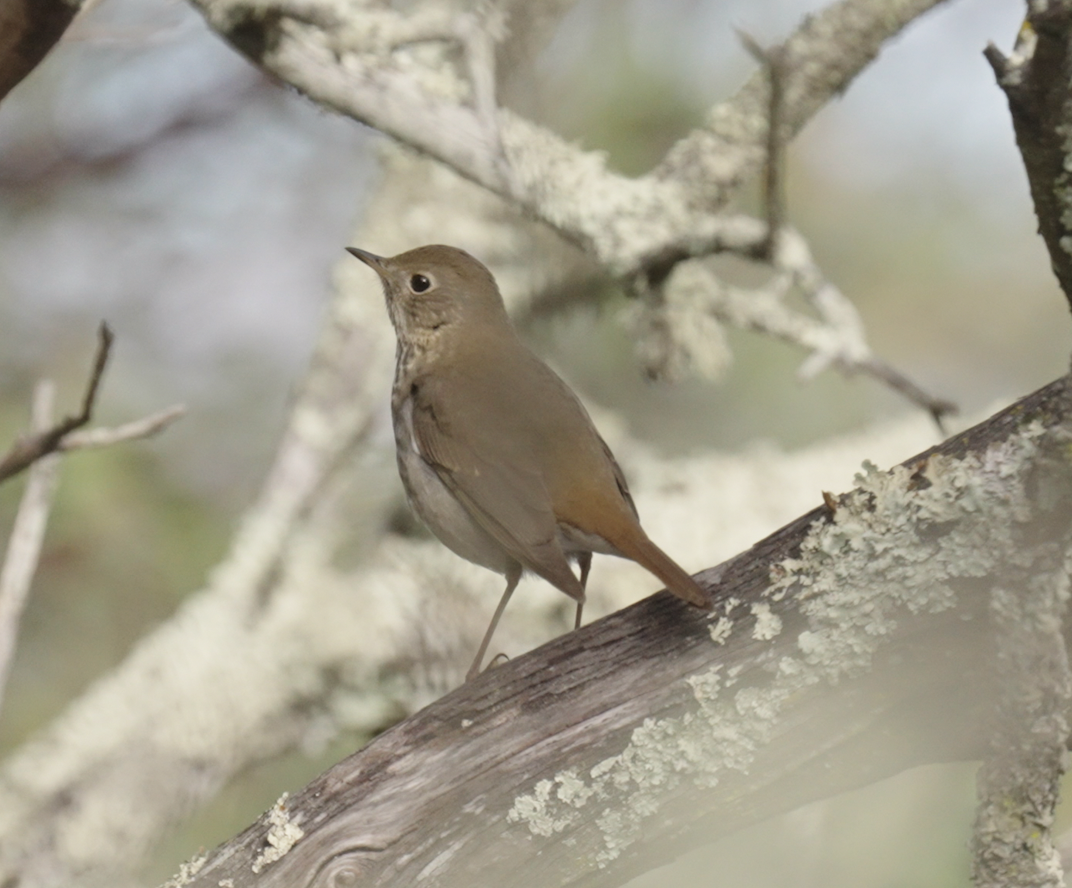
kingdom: Animalia
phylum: Chordata
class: Aves
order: Passeriformes
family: Turdidae
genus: Catharus
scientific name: Catharus guttatus
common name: Hermit thrush
